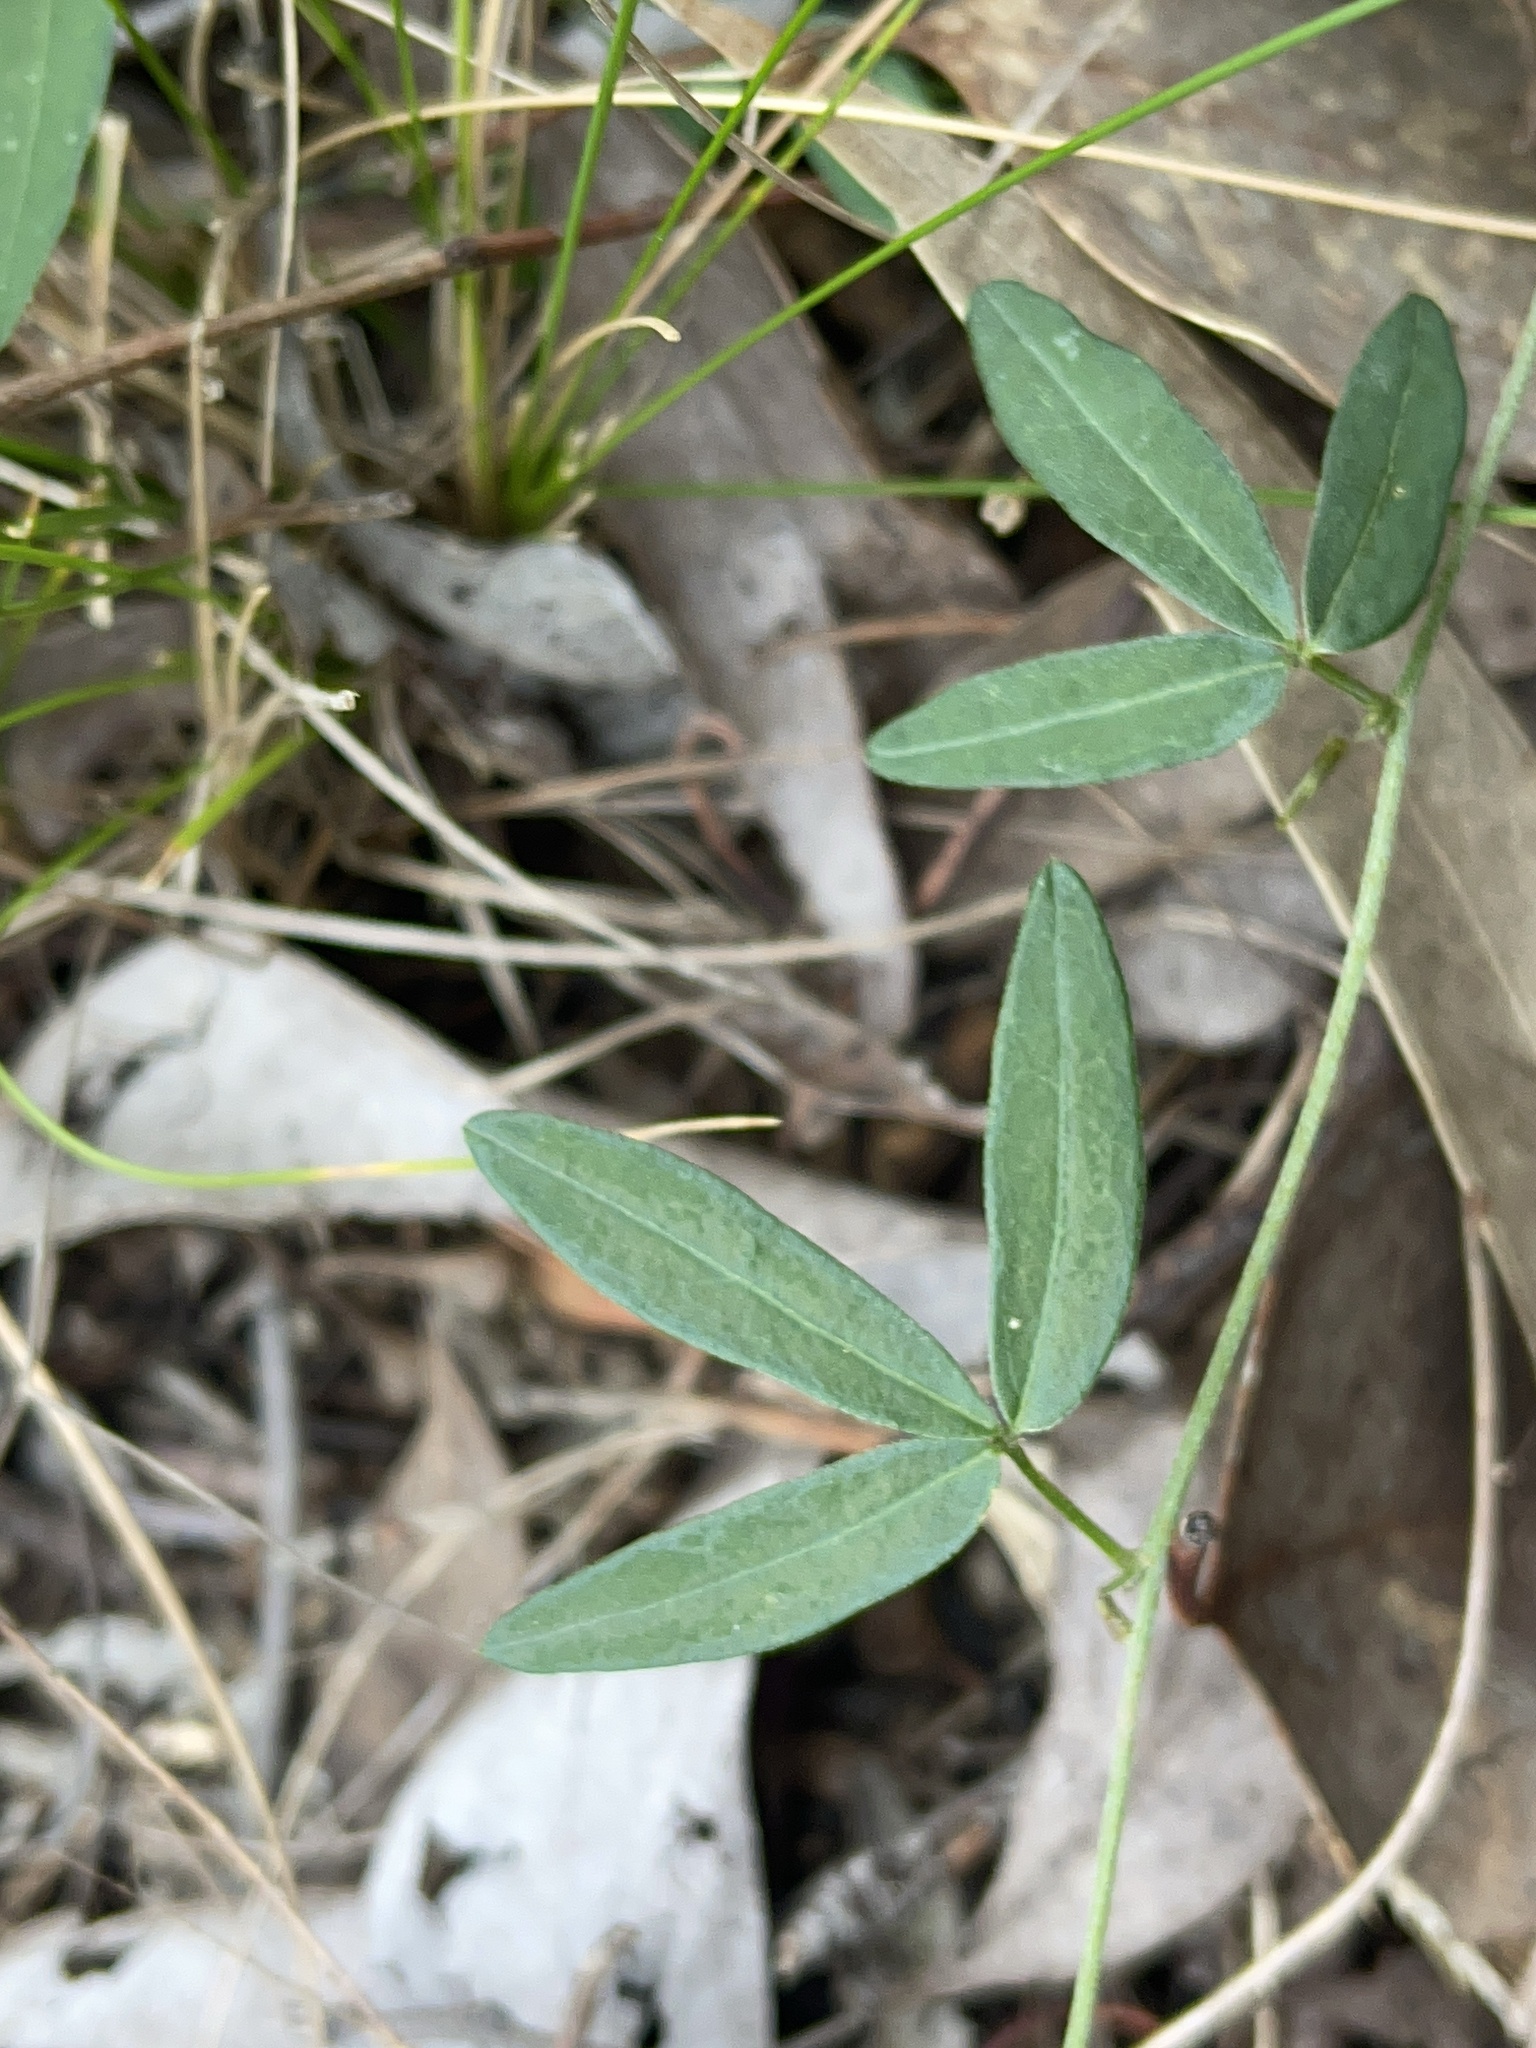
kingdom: Plantae
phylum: Tracheophyta
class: Magnoliopsida
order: Fabales
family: Fabaceae
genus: Glycine
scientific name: Glycine clandestina
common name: Twining glycine
